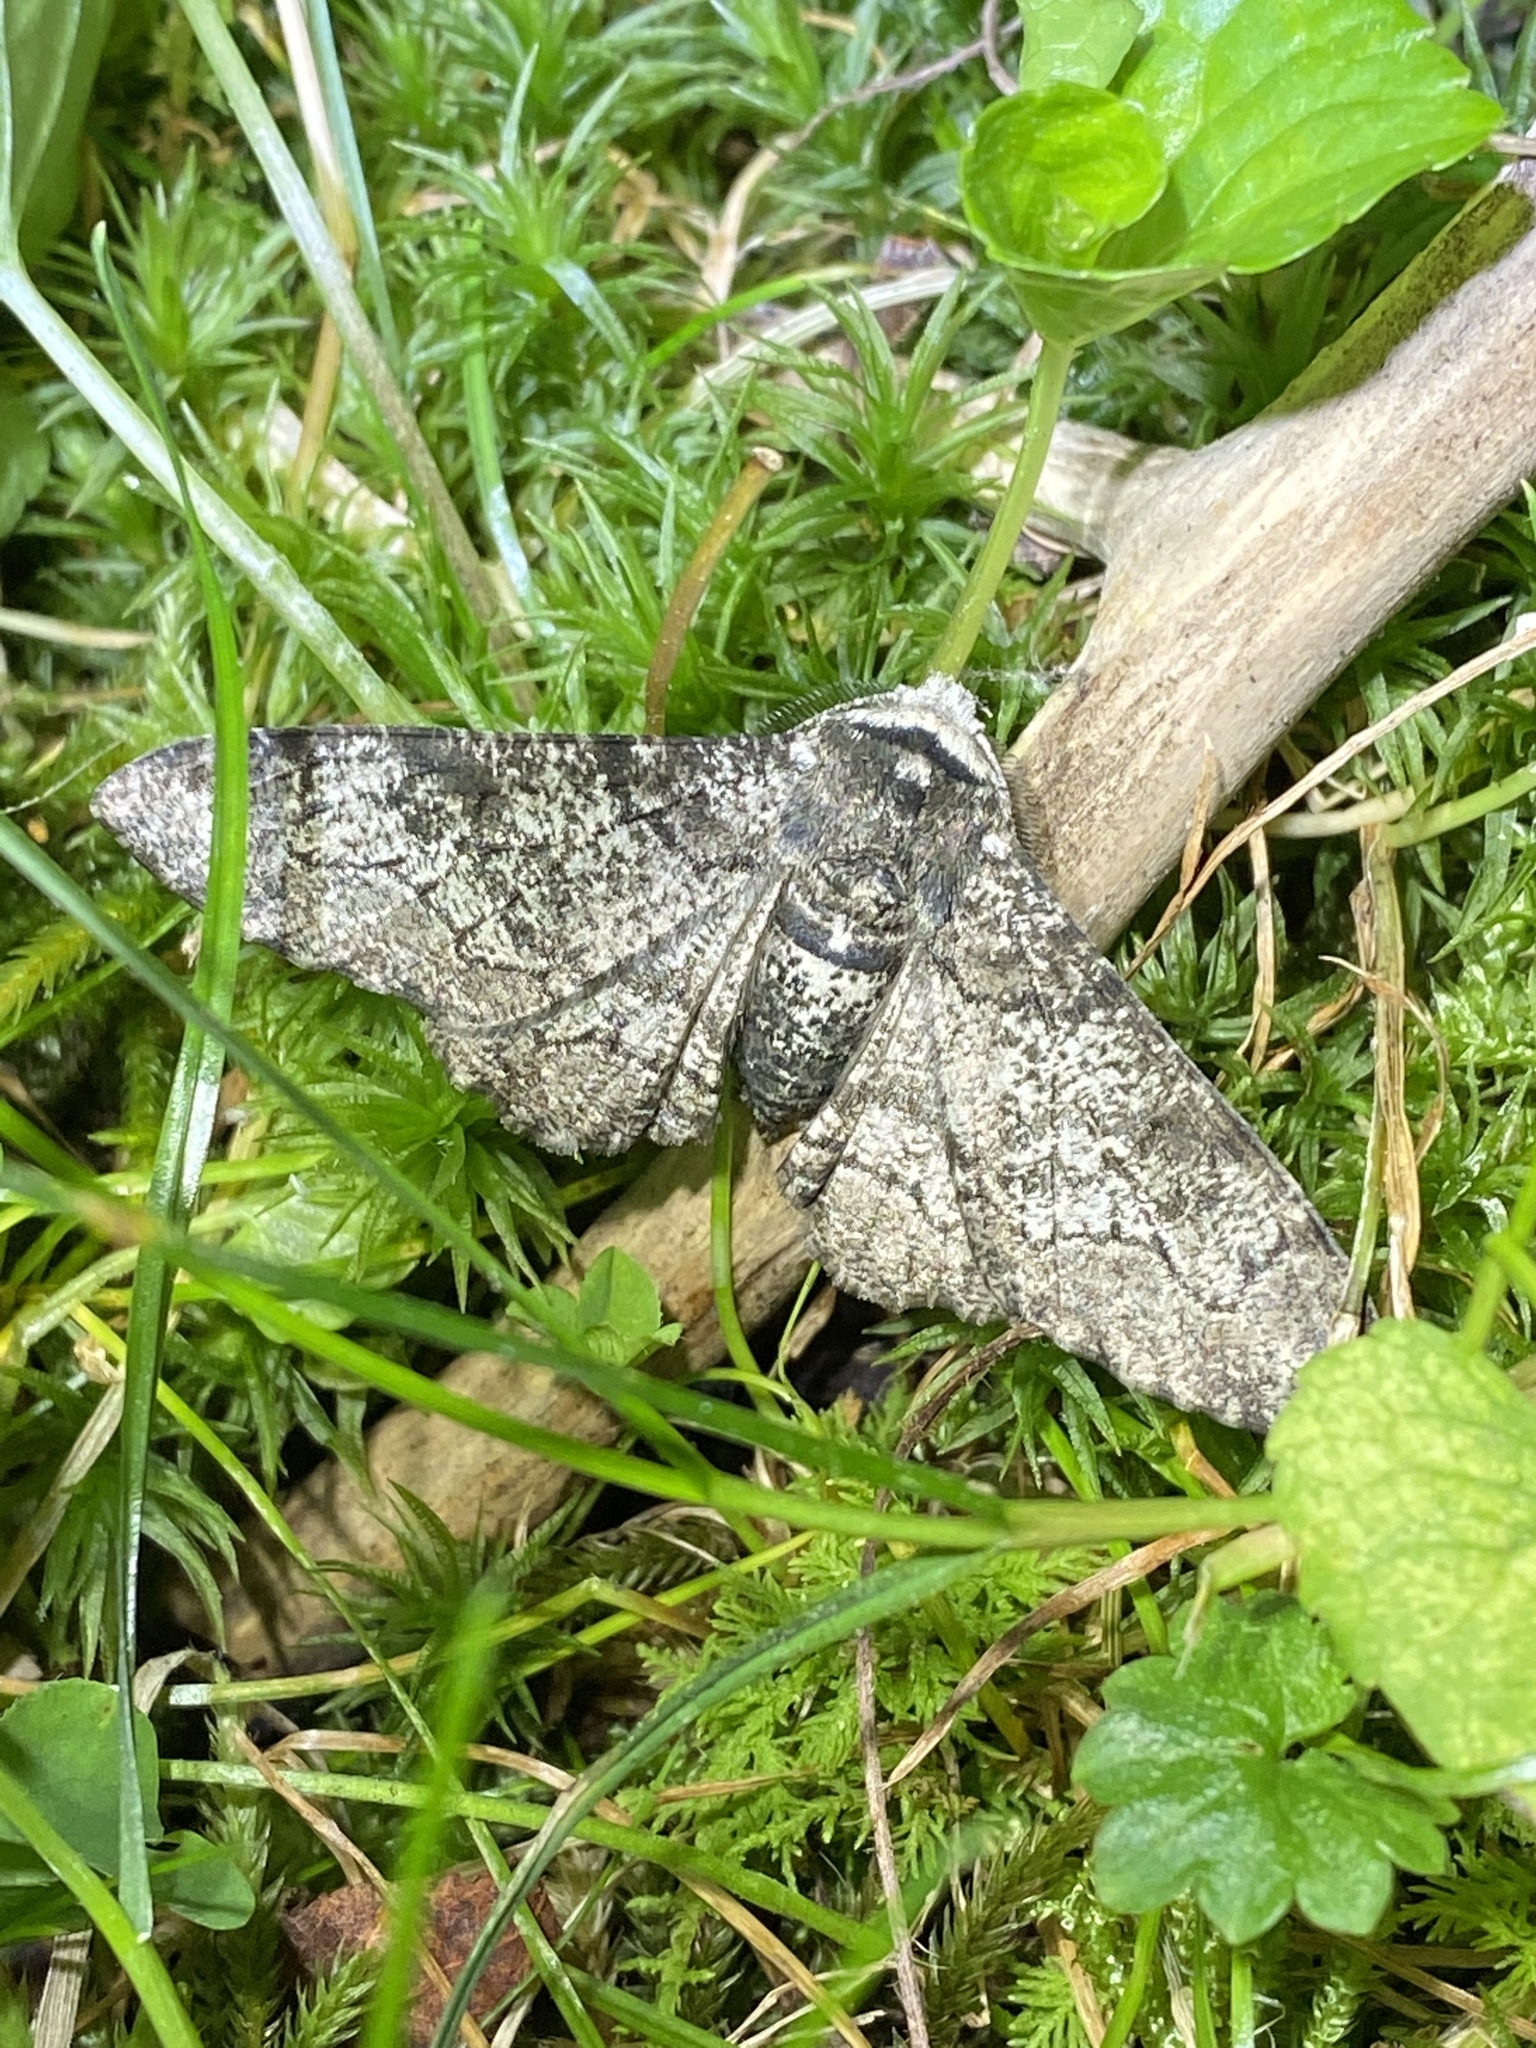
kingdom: Animalia
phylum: Arthropoda
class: Insecta
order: Lepidoptera
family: Geometridae
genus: Biston
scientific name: Biston betularia
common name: Peppered moth
